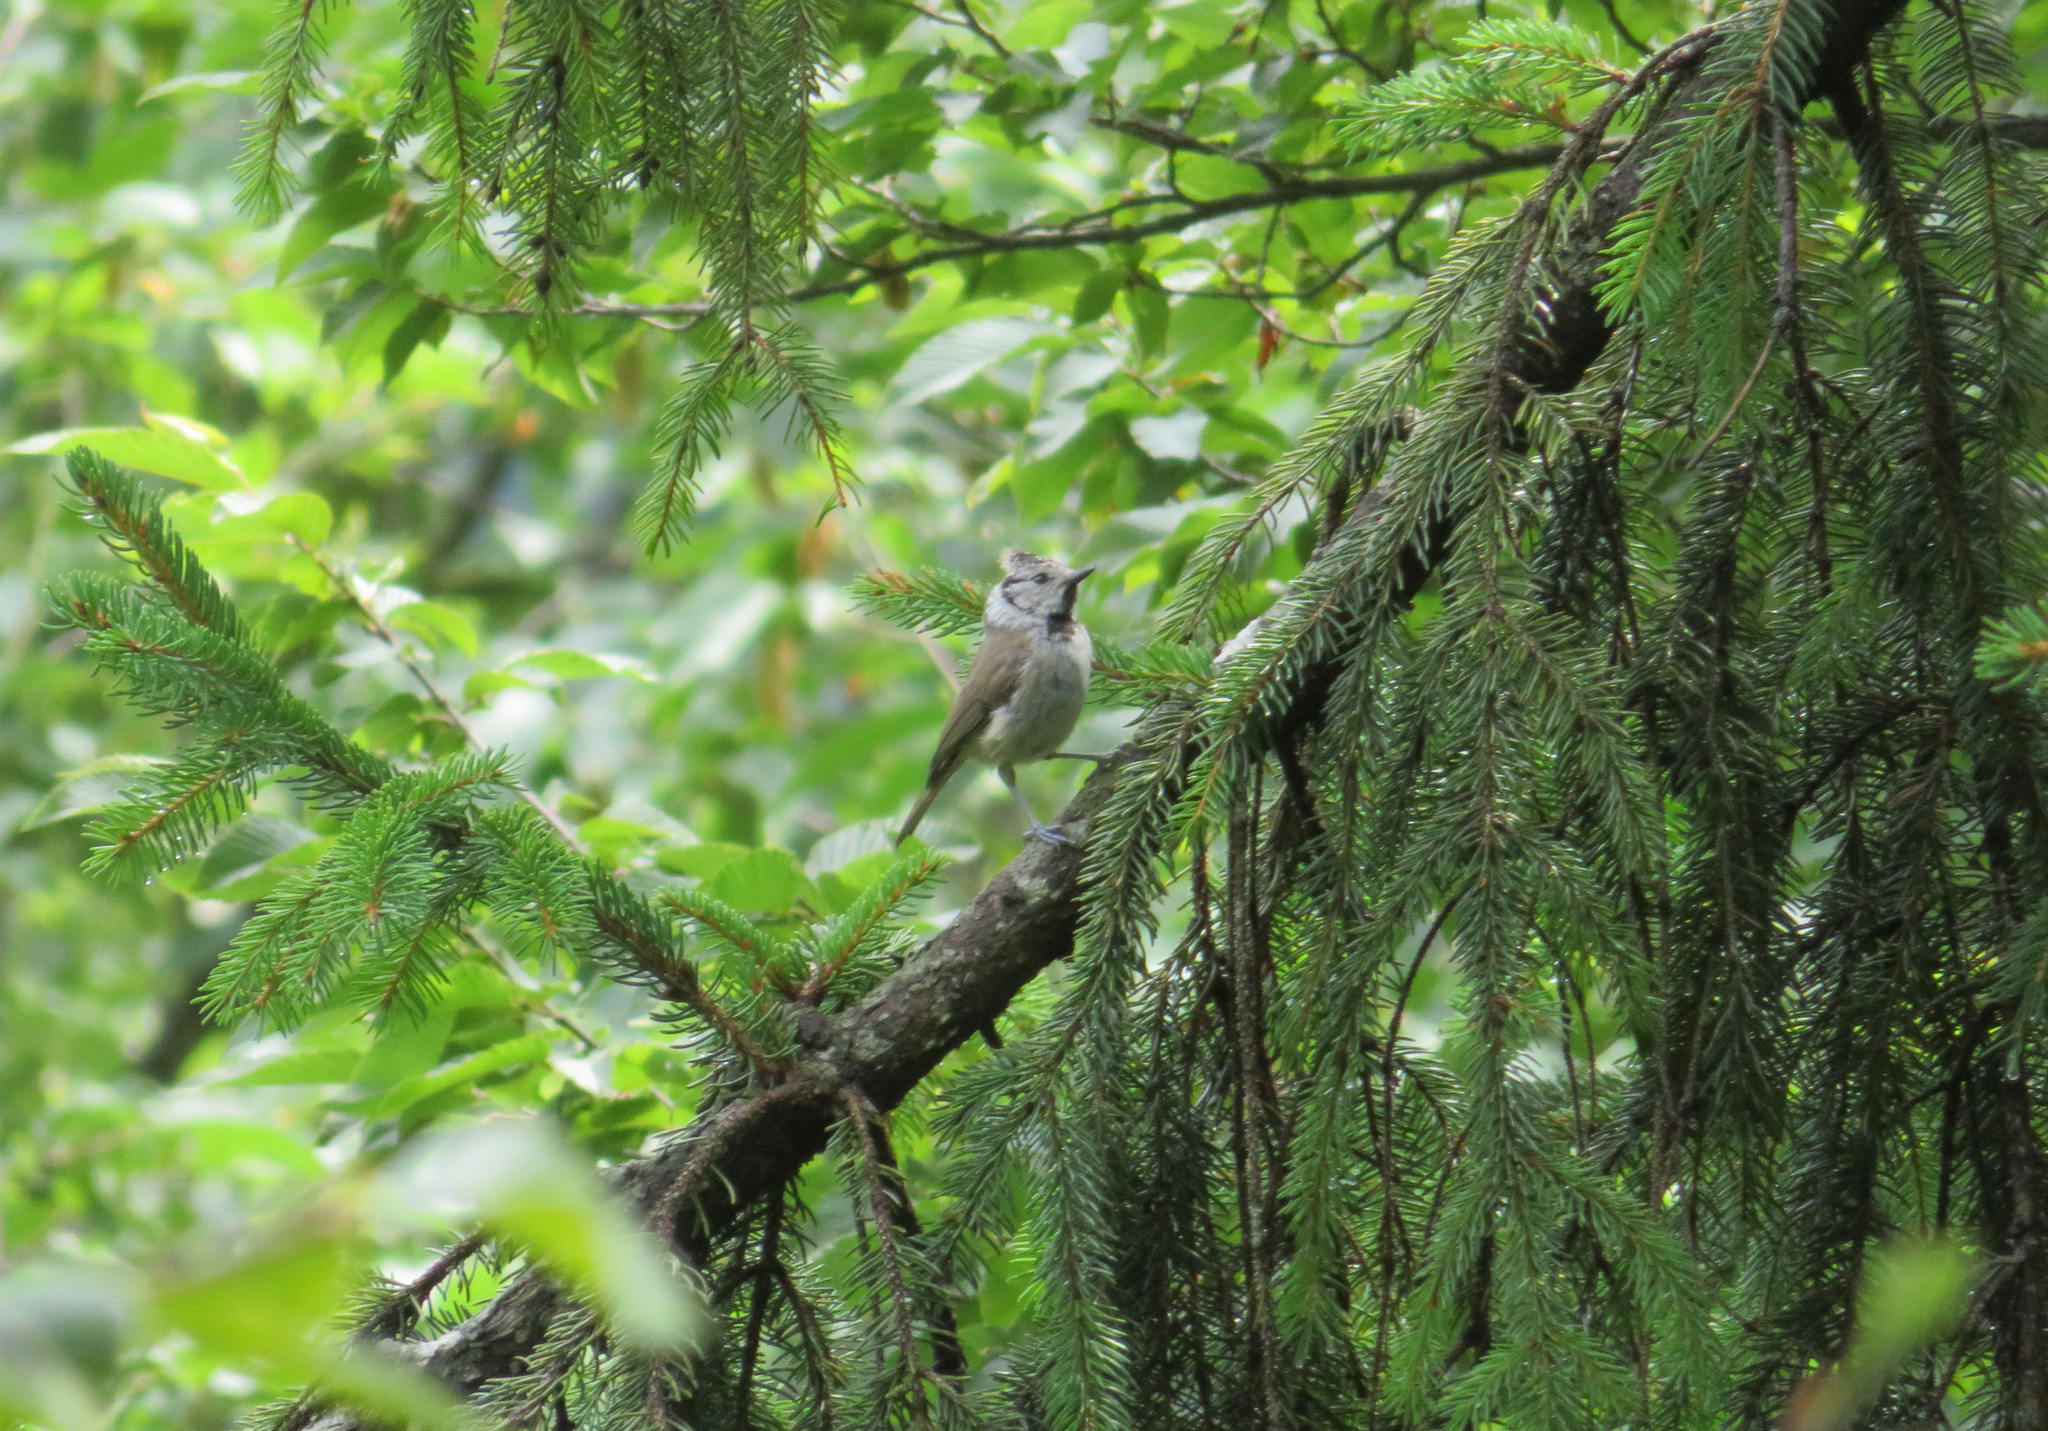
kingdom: Animalia
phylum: Chordata
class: Aves
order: Passeriformes
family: Paridae
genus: Lophophanes
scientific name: Lophophanes cristatus
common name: European crested tit
